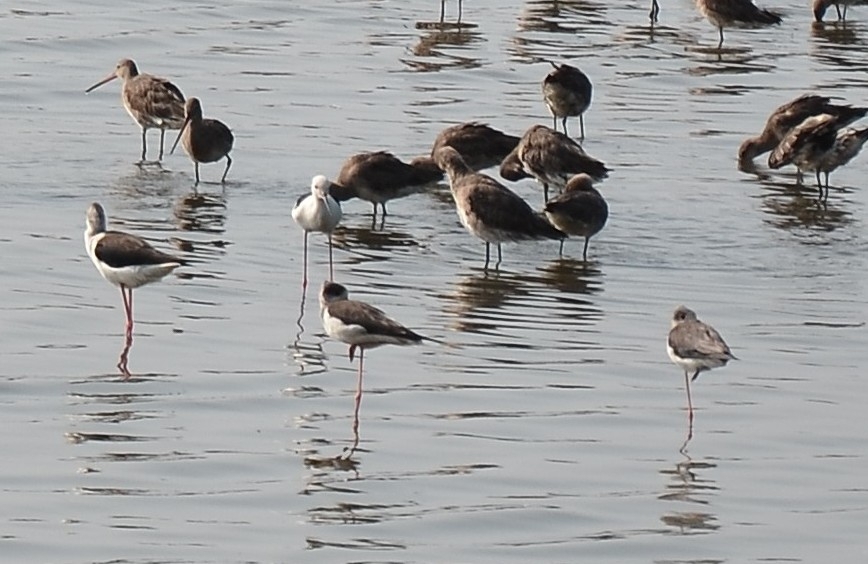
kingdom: Animalia
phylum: Chordata
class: Aves
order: Charadriiformes
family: Recurvirostridae
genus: Himantopus
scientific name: Himantopus himantopus
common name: Black-winged stilt
